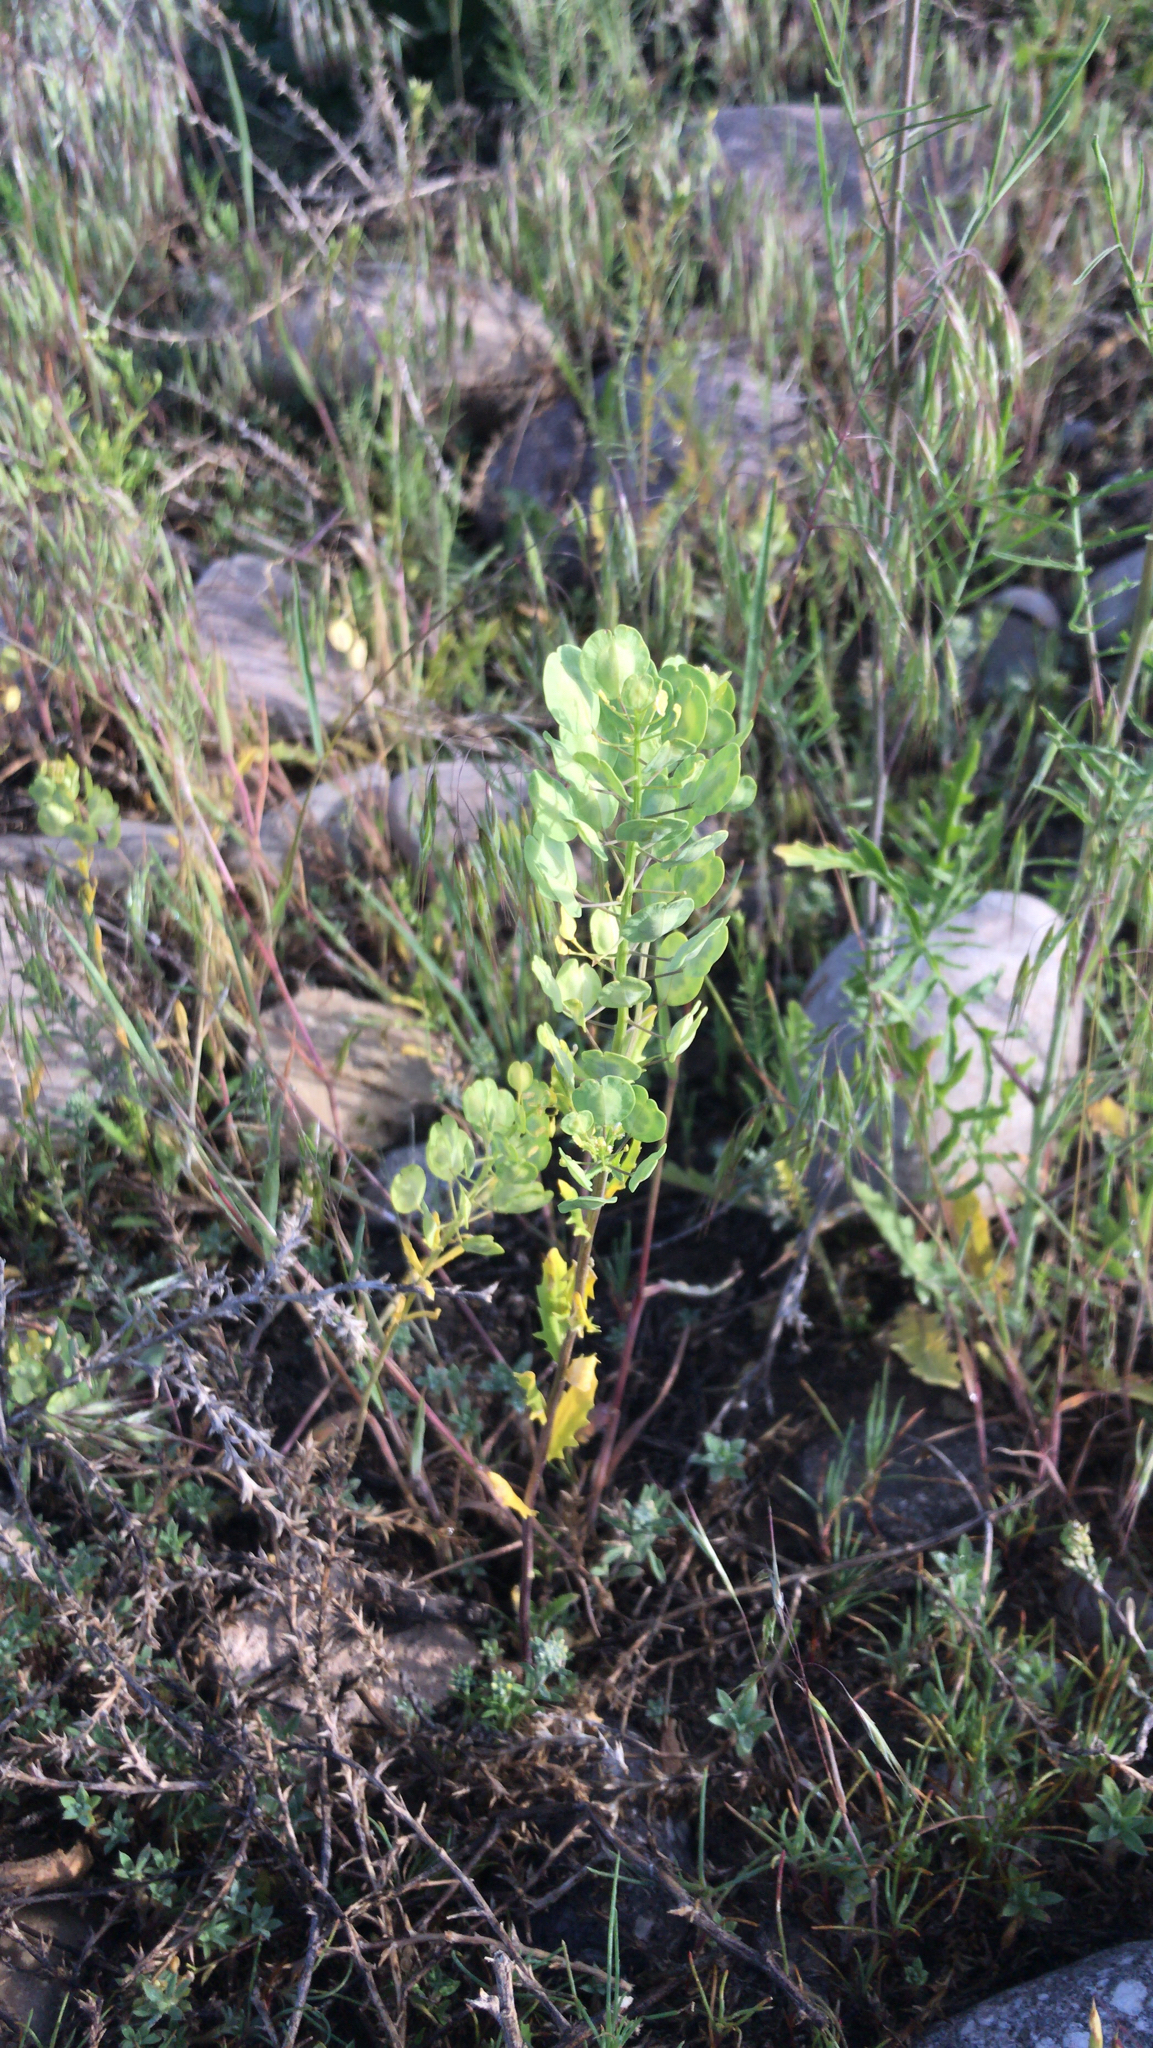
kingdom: Plantae
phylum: Tracheophyta
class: Magnoliopsida
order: Brassicales
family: Brassicaceae
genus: Thlaspi
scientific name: Thlaspi arvense
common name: Field pennycress
